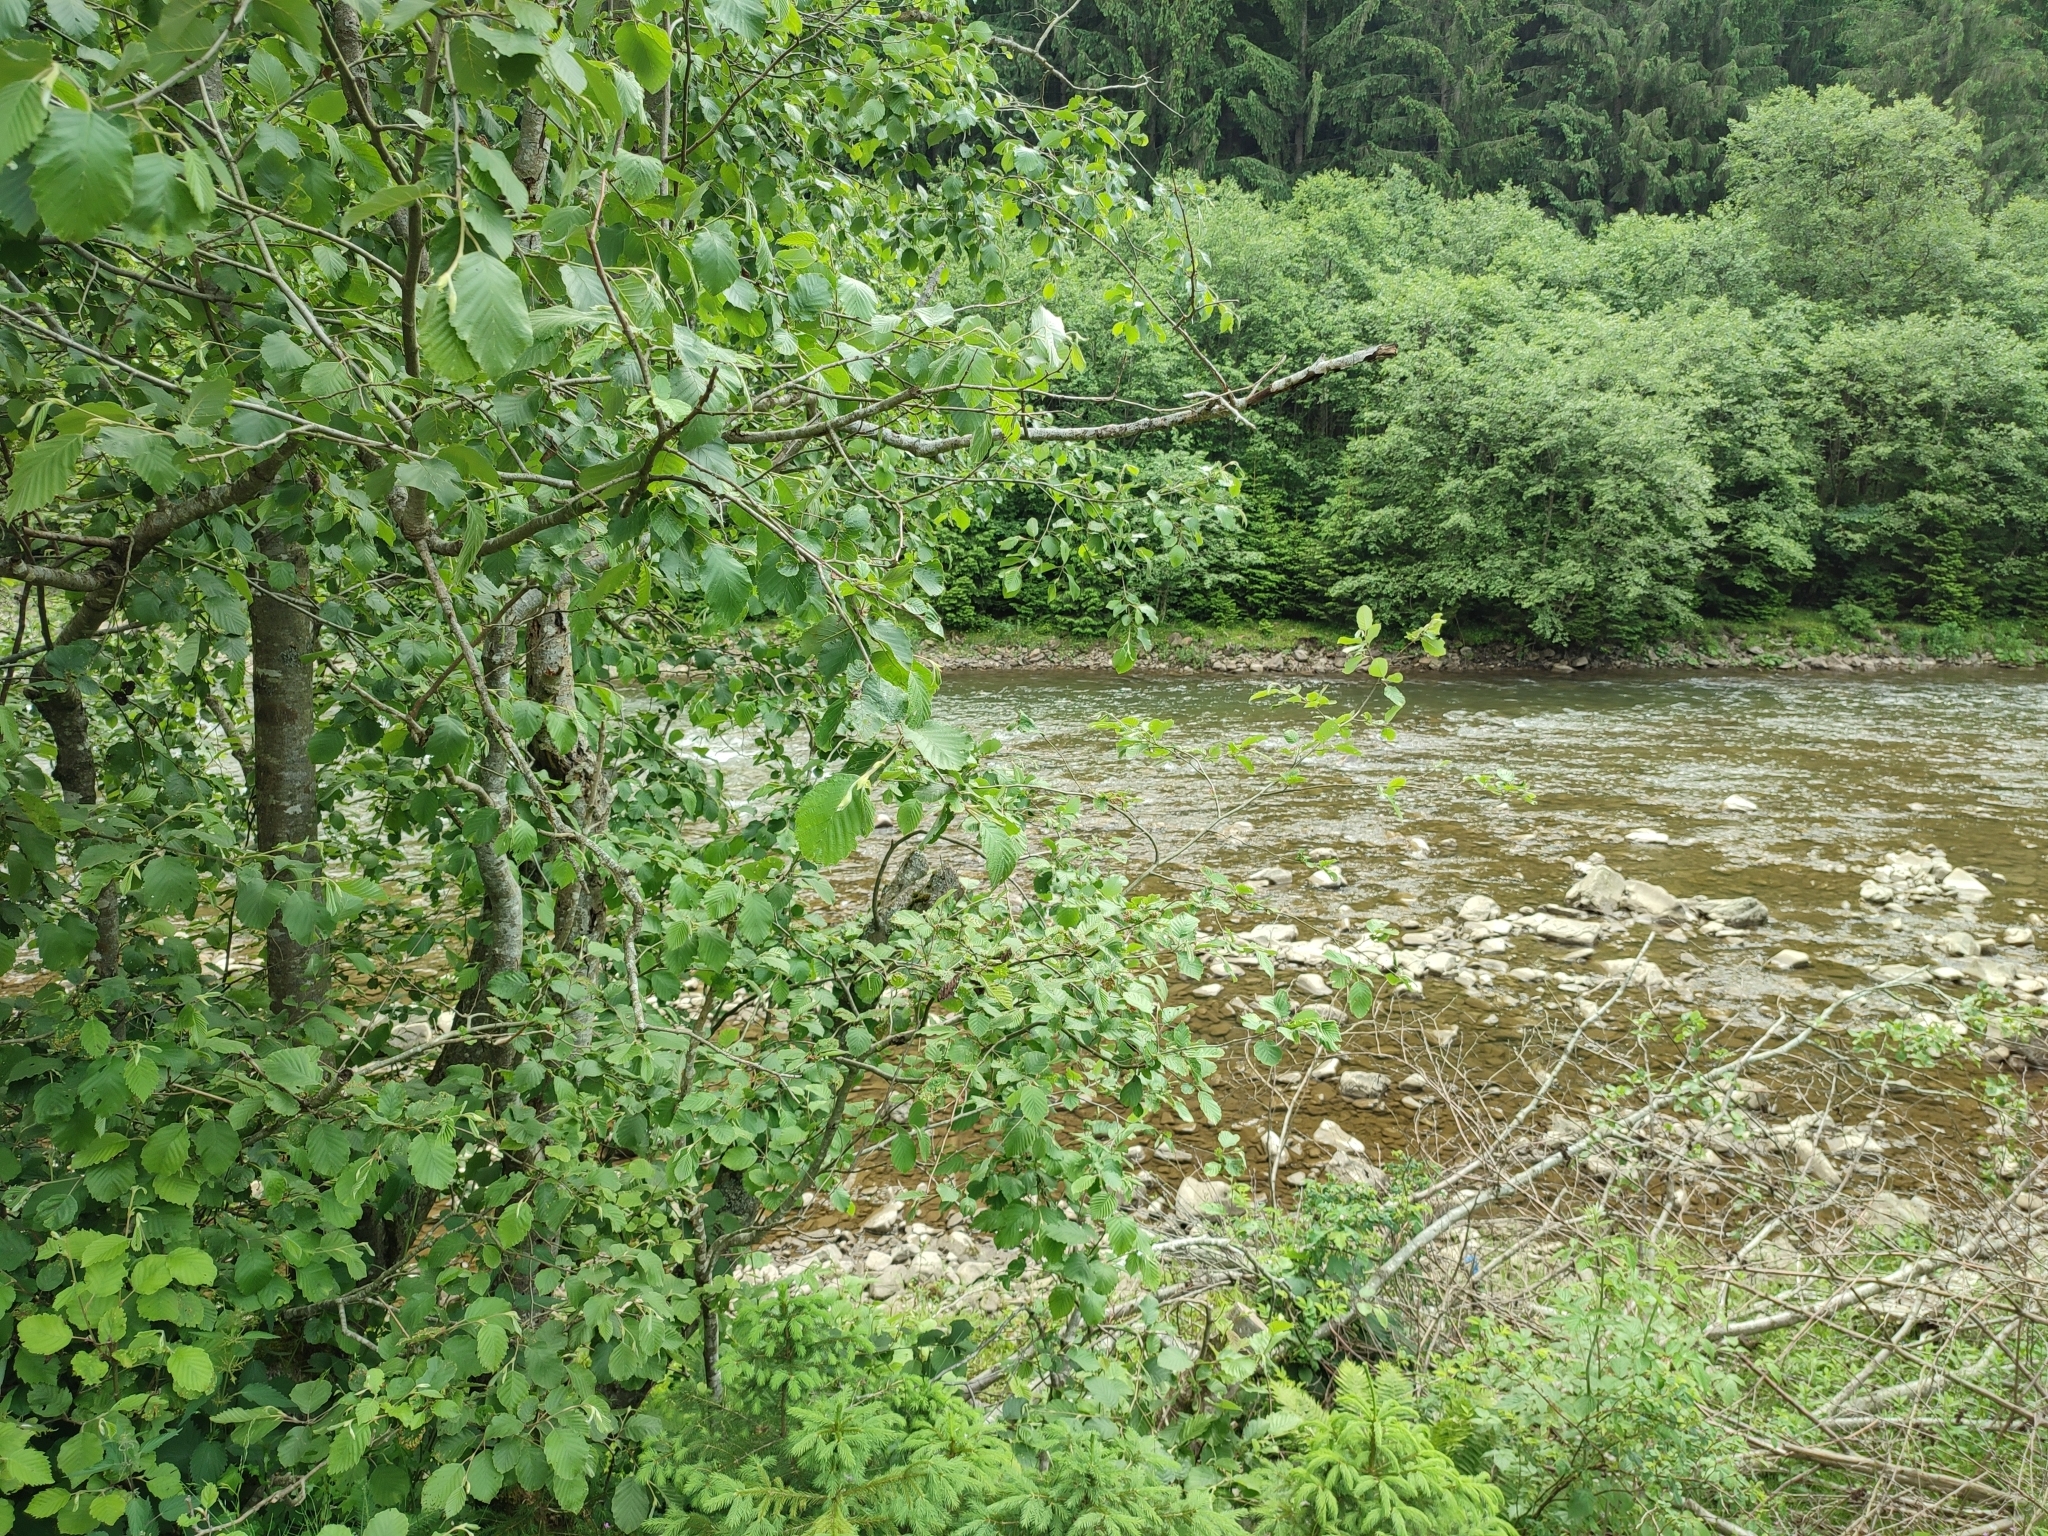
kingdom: Plantae
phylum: Tracheophyta
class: Magnoliopsida
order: Fagales
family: Betulaceae
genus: Alnus
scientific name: Alnus incana
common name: Grey alder
